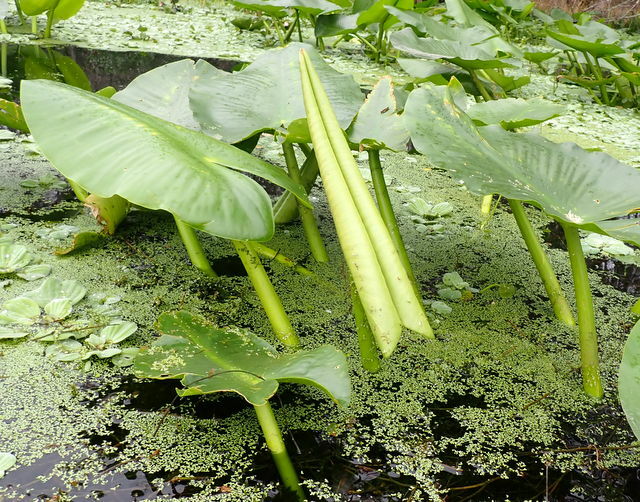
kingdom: Plantae
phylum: Tracheophyta
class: Magnoliopsida
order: Nymphaeales
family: Nymphaeaceae
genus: Nuphar
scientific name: Nuphar advena
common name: Spatter-dock
